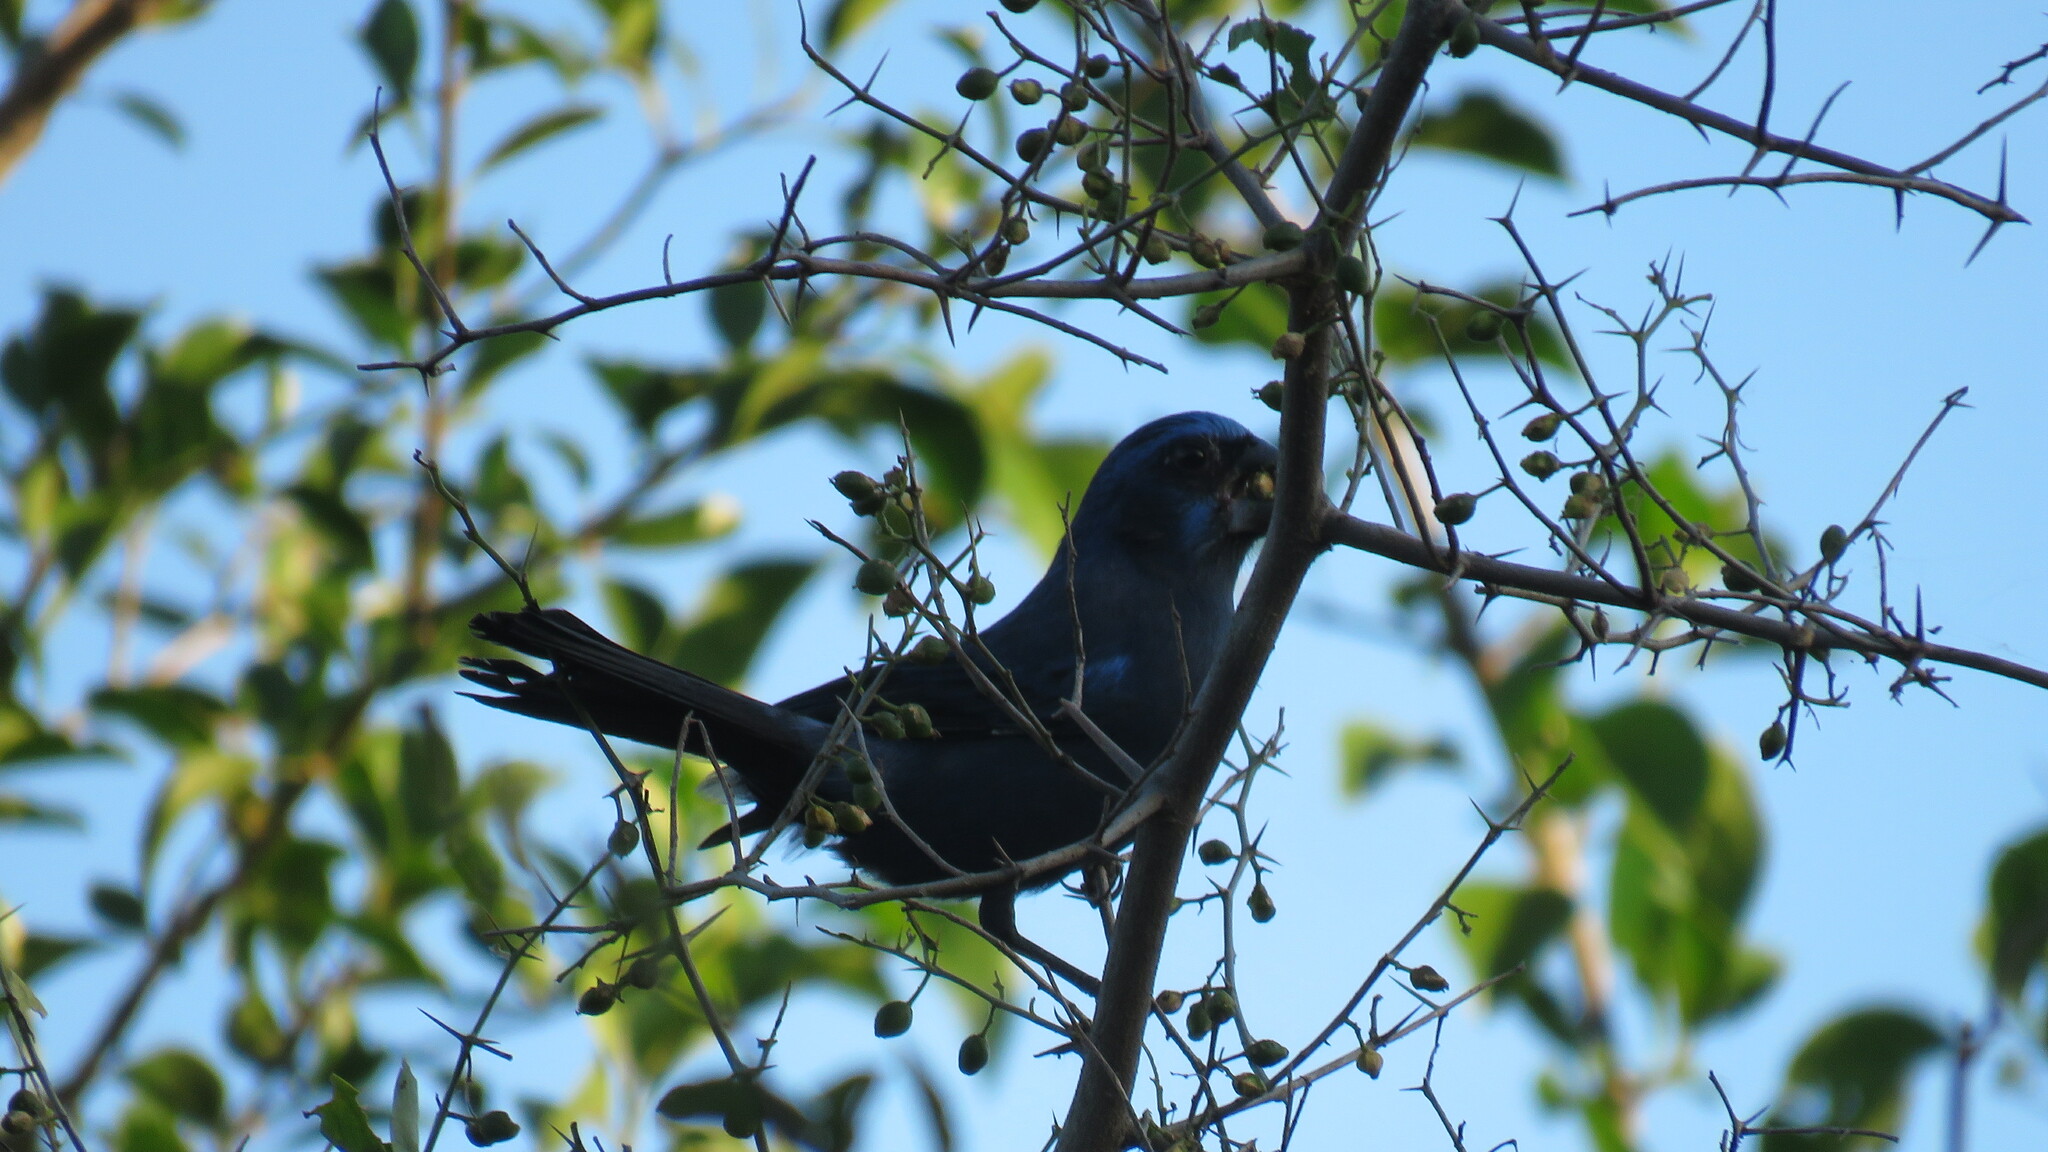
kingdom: Animalia
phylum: Chordata
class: Aves
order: Passeriformes
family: Cardinalidae
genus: Cyanoloxia
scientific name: Cyanoloxia brissonii
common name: Ultramarine grosbeak
